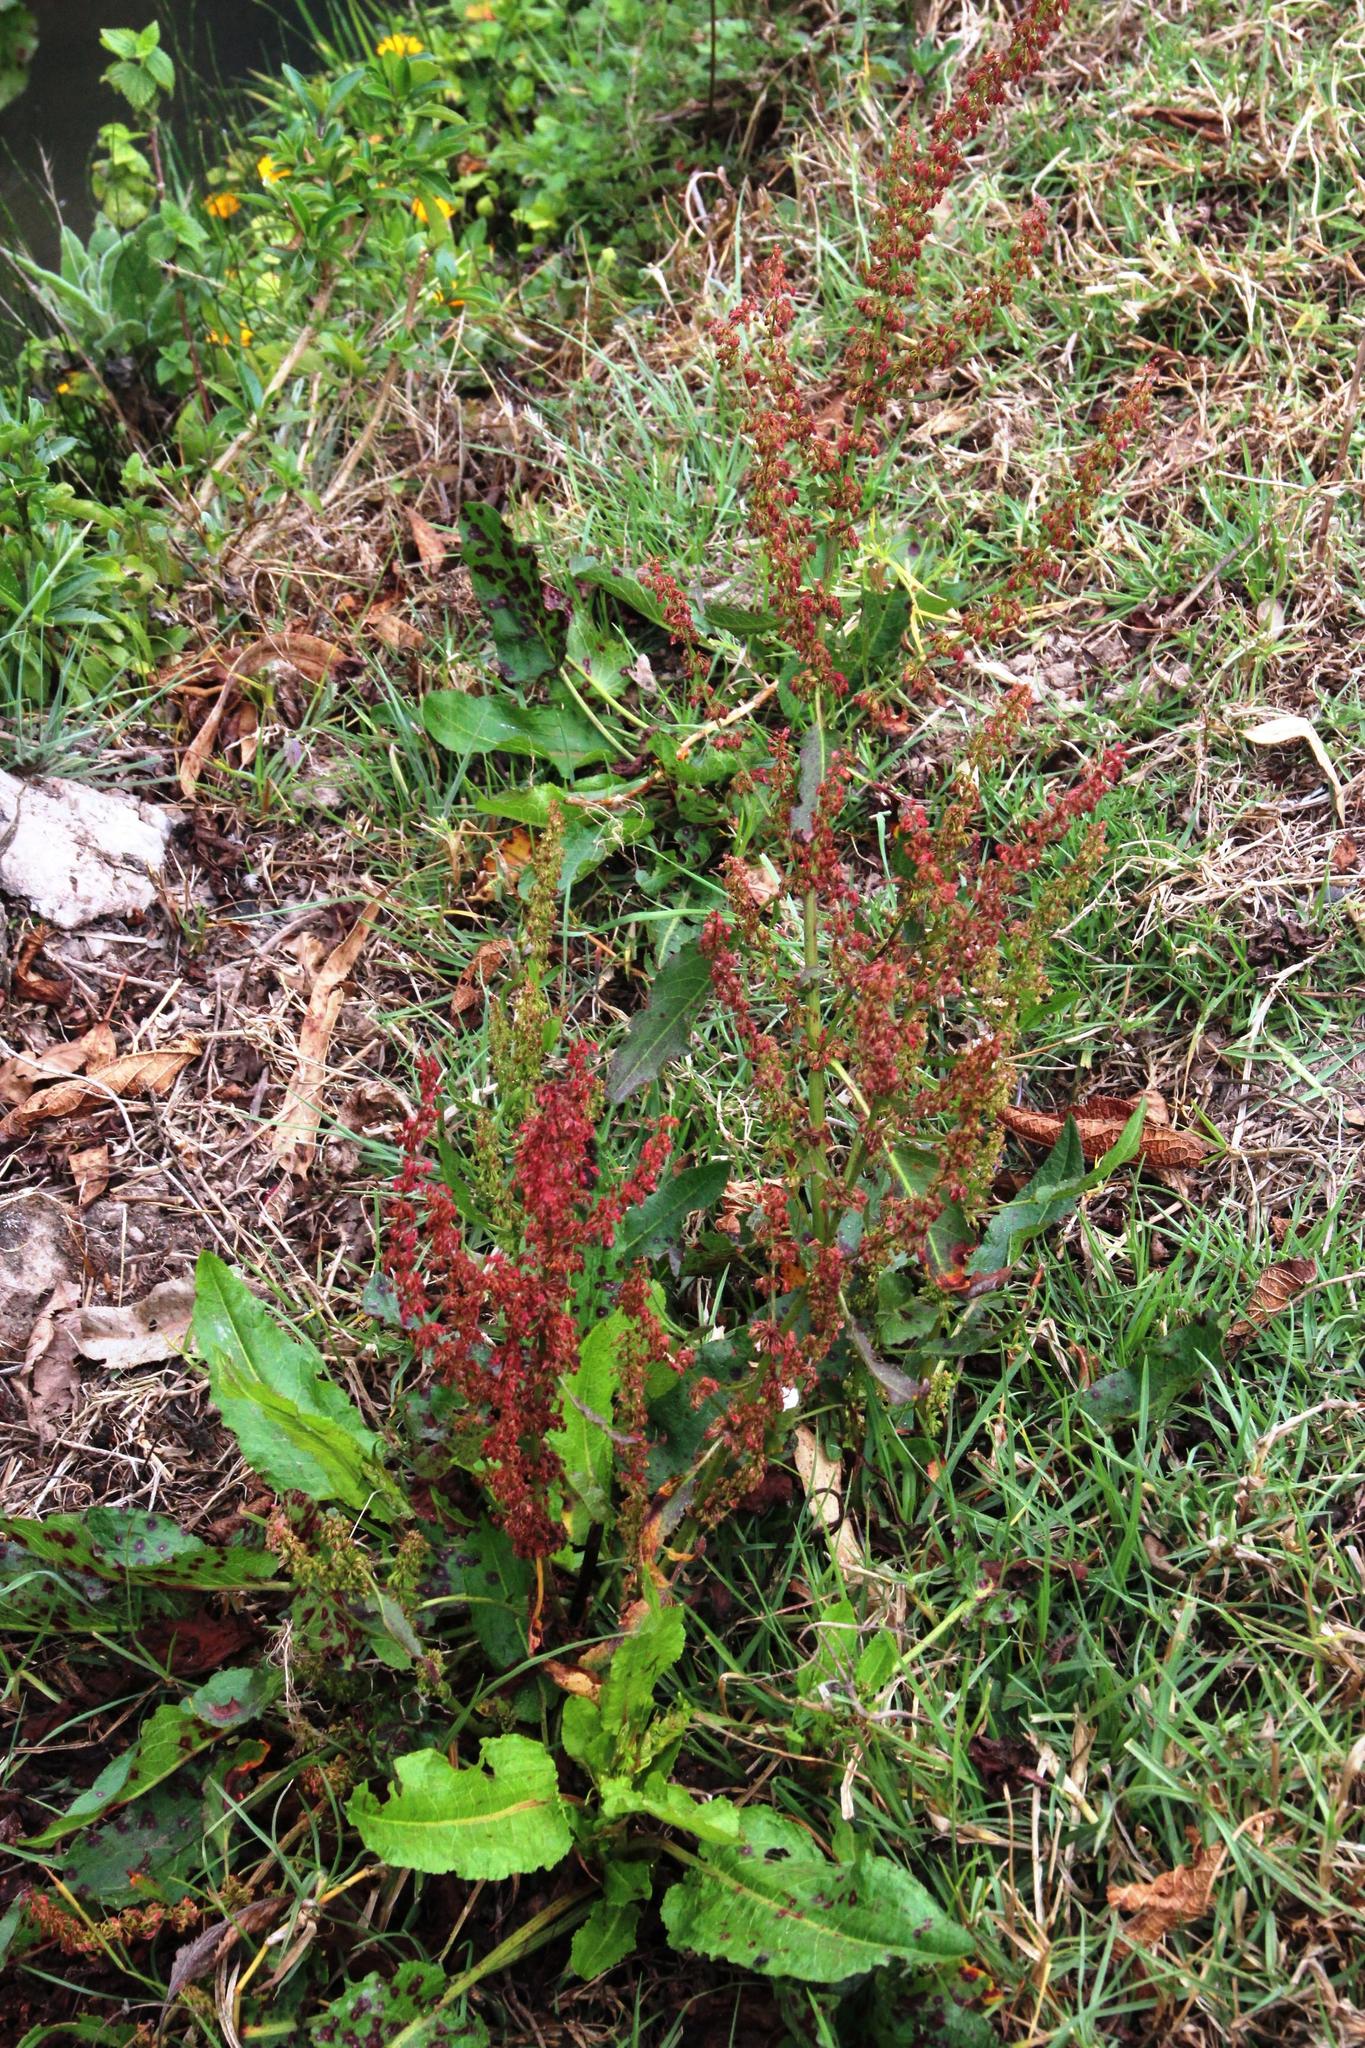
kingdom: Plantae
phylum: Tracheophyta
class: Magnoliopsida
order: Caryophyllales
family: Polygonaceae
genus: Rumex
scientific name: Rumex obtusifolius
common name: Bitter dock
